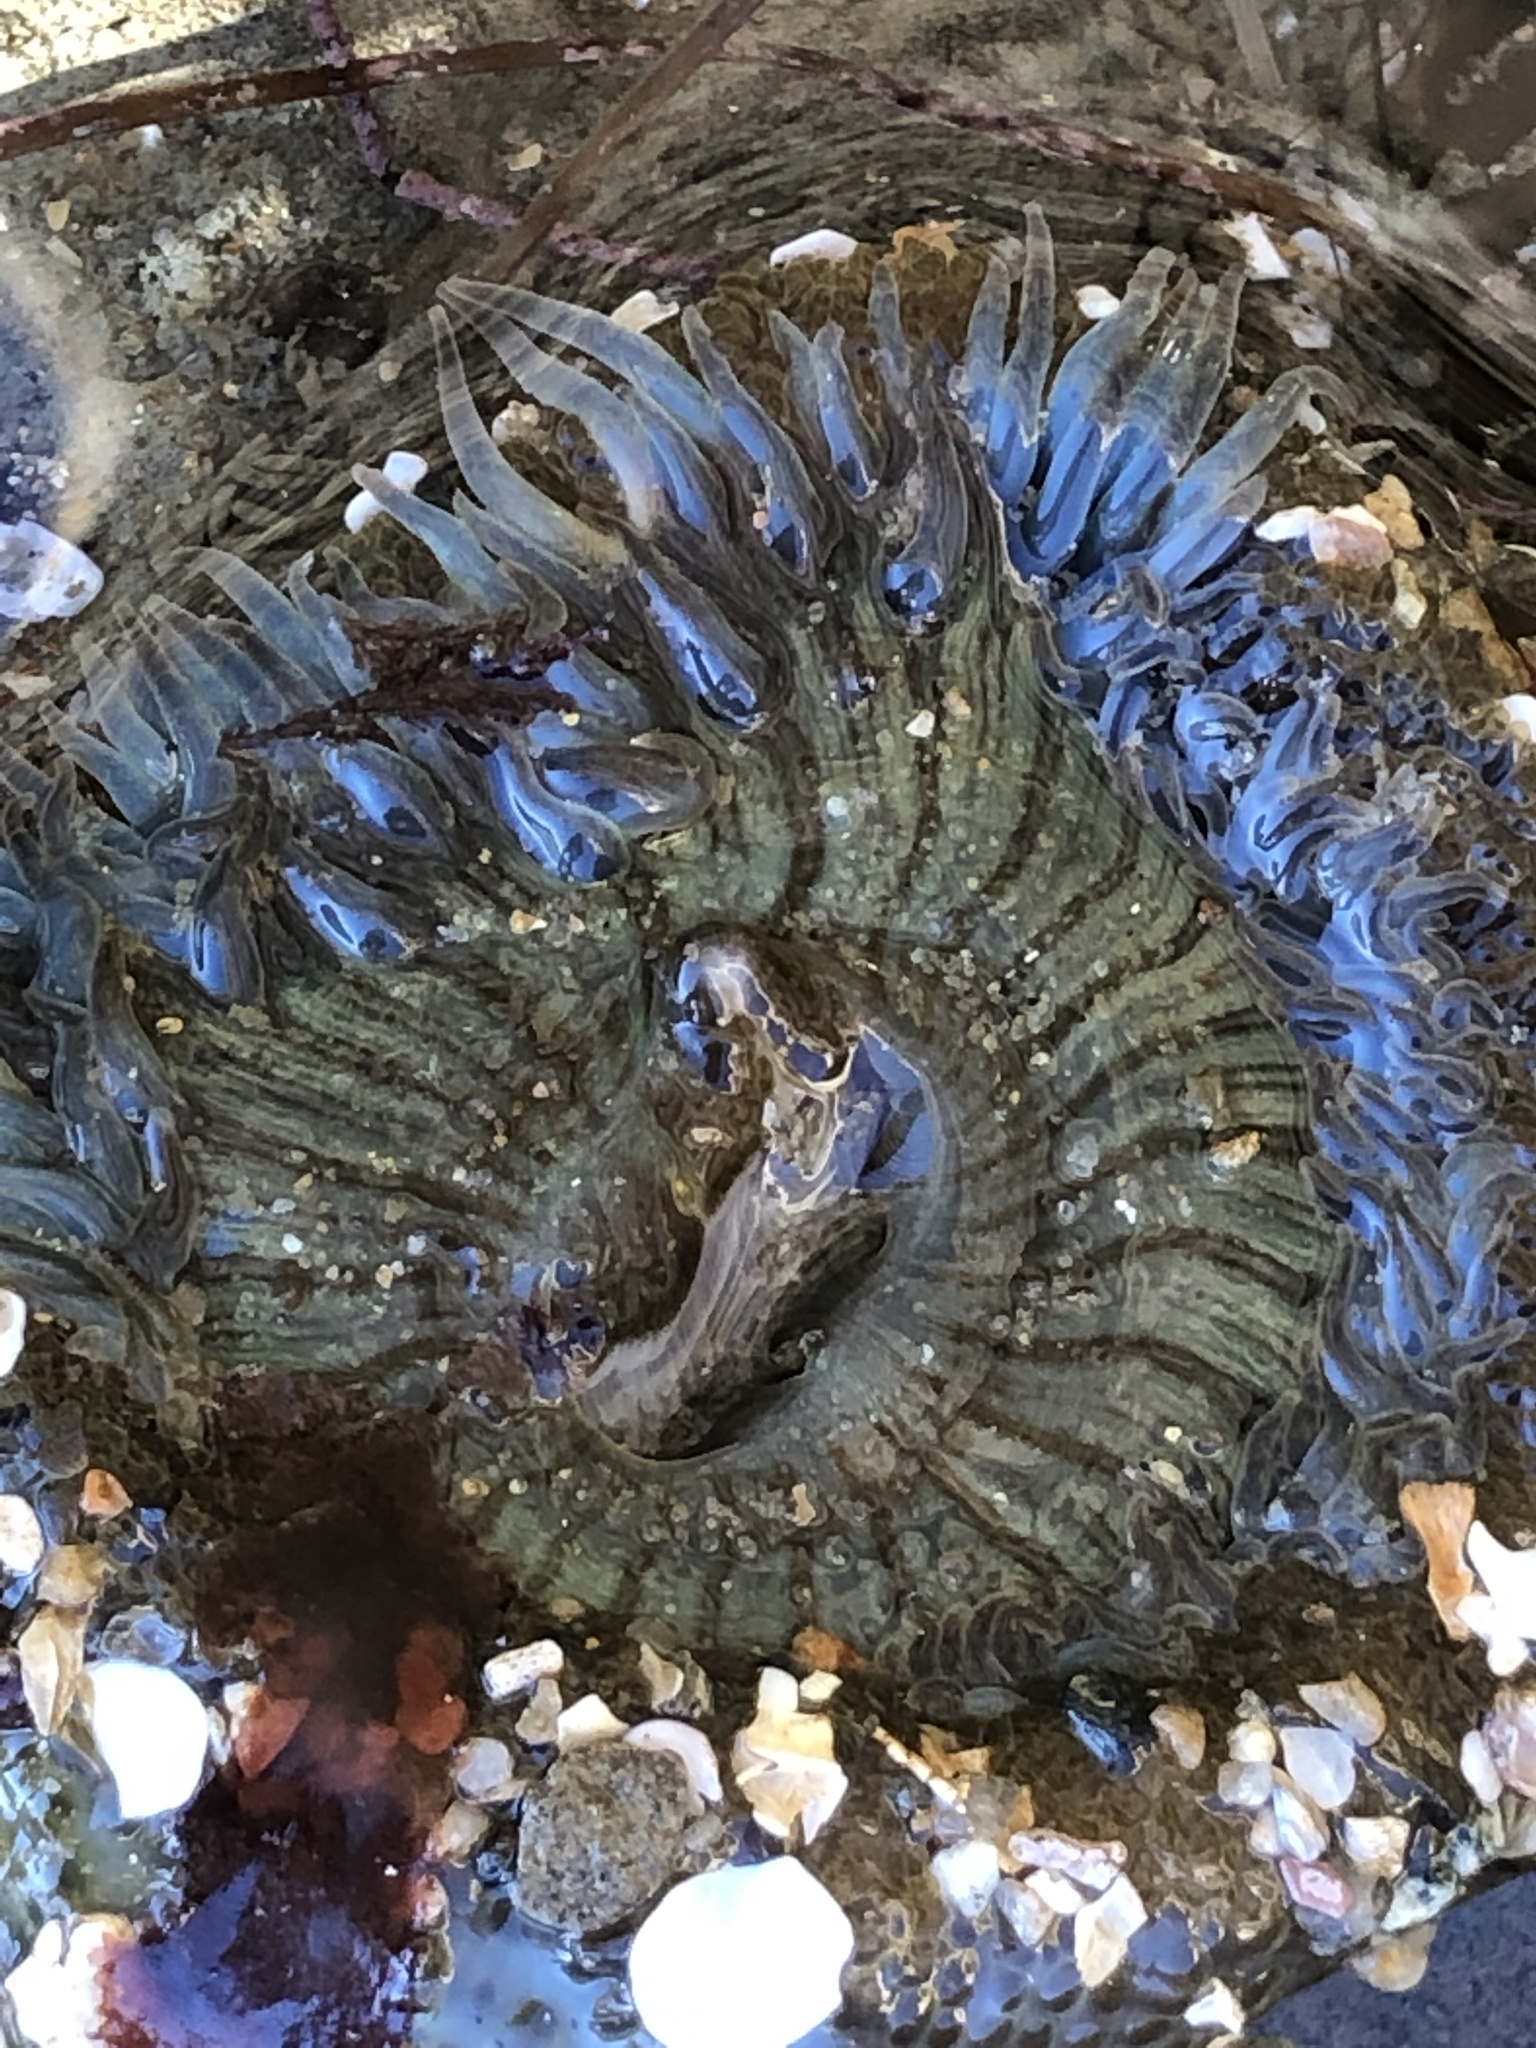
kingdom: Animalia
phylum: Cnidaria
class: Anthozoa
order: Actiniaria
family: Actiniidae
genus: Anthopleura
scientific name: Anthopleura sola
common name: Sun anemone
